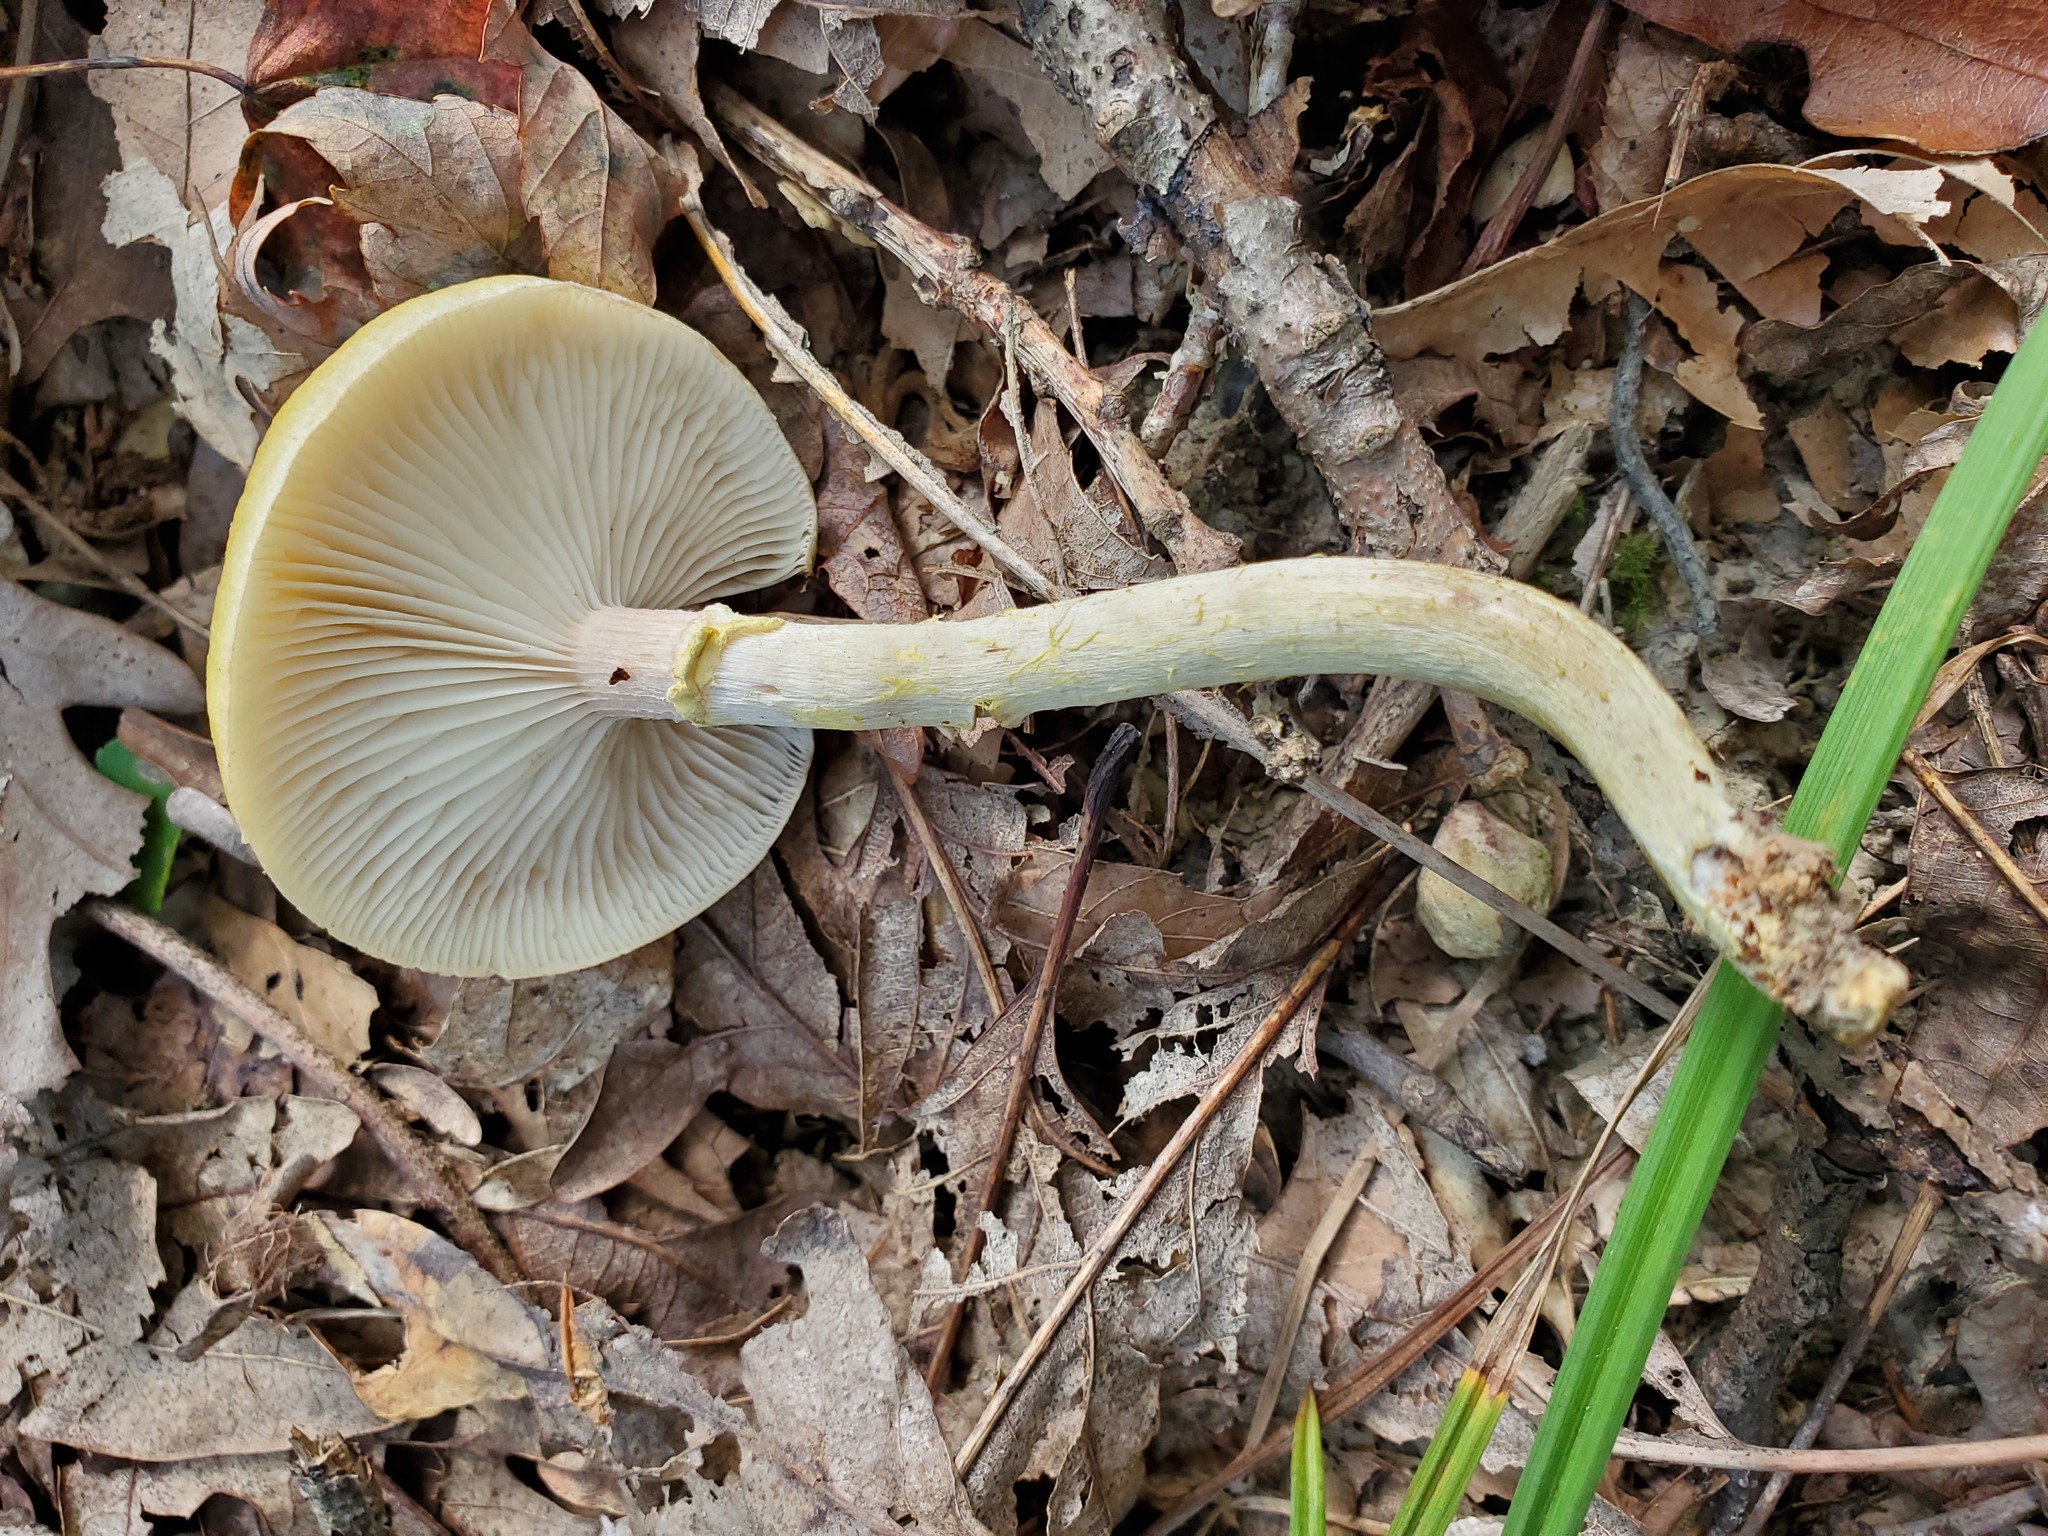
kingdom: Fungi
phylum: Basidiomycota
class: Agaricomycetes
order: Agaricales
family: Physalacriaceae
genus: Armillaria
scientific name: Armillaria mellea
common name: Honey fungus
